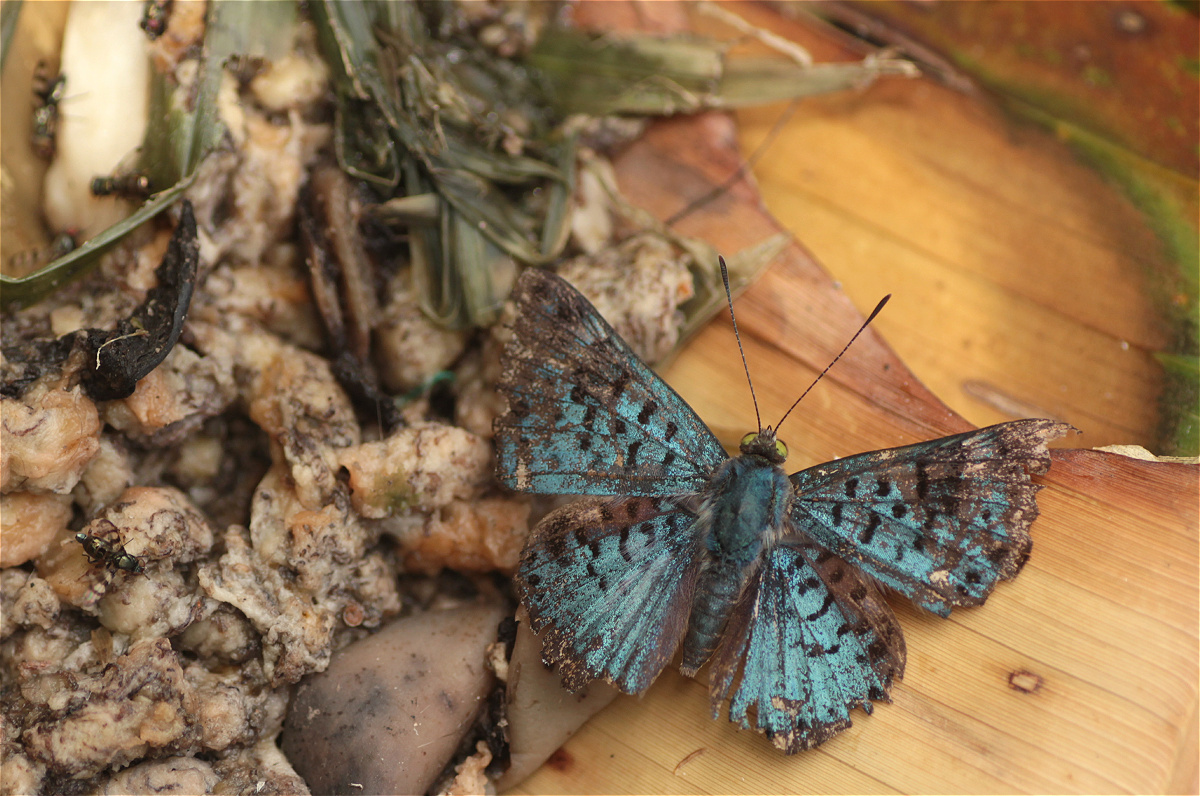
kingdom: Animalia
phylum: Arthropoda
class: Insecta
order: Lepidoptera
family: Riodinidae
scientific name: Riodinidae
